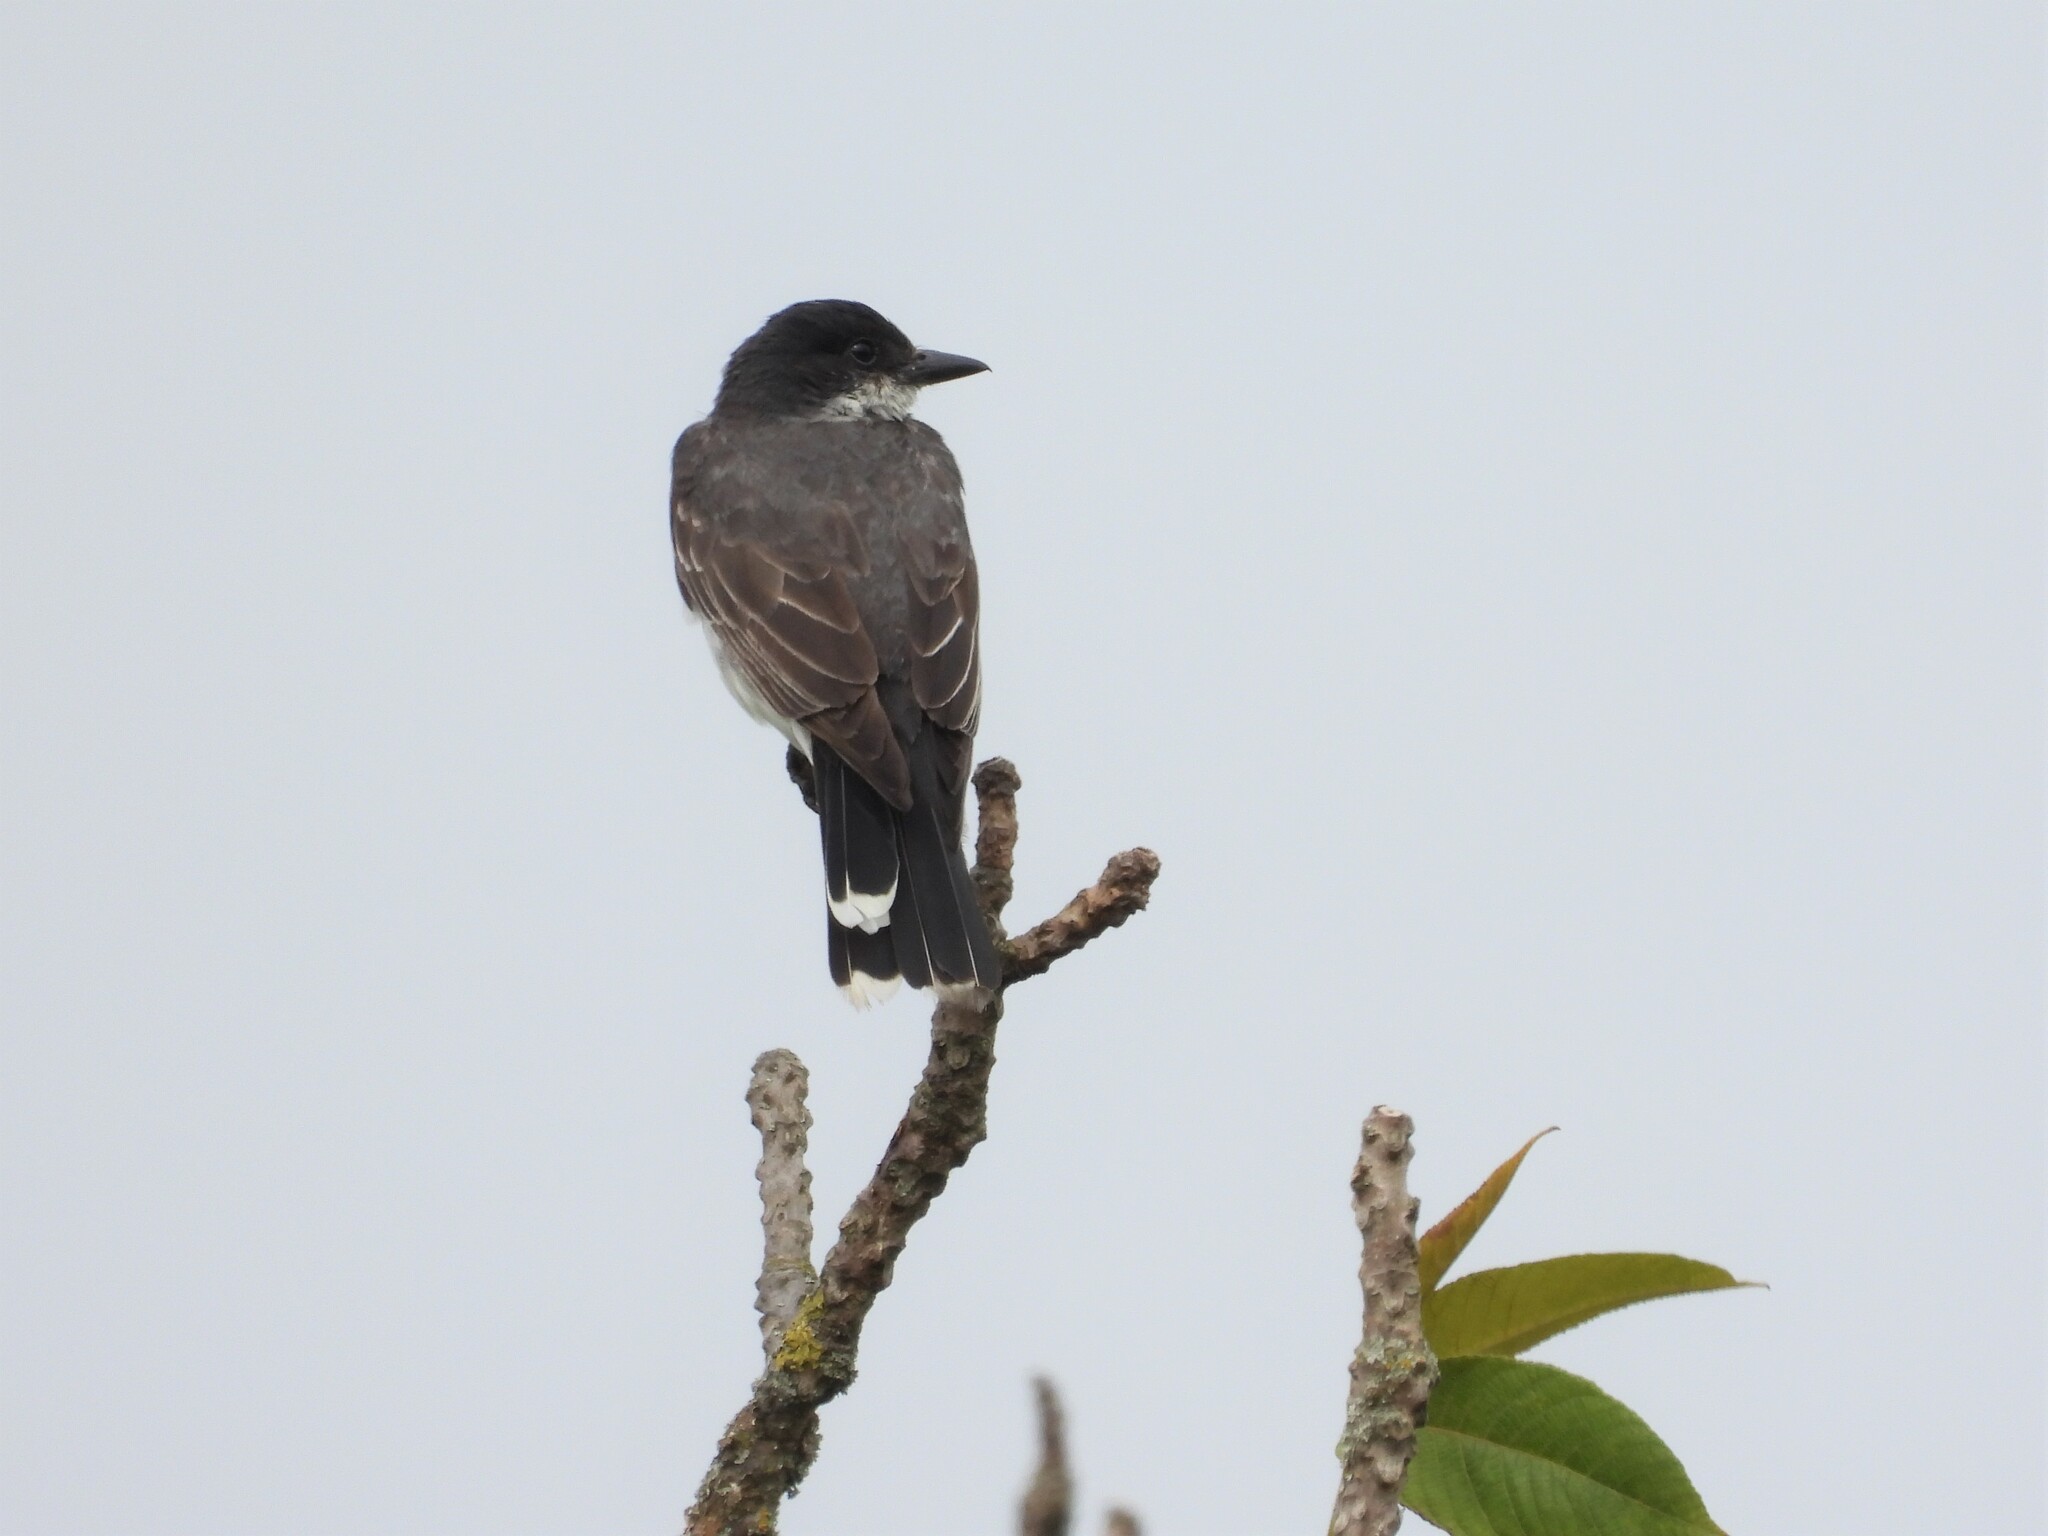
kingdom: Animalia
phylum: Chordata
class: Aves
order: Passeriformes
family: Tyrannidae
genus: Tyrannus
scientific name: Tyrannus tyrannus
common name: Eastern kingbird
